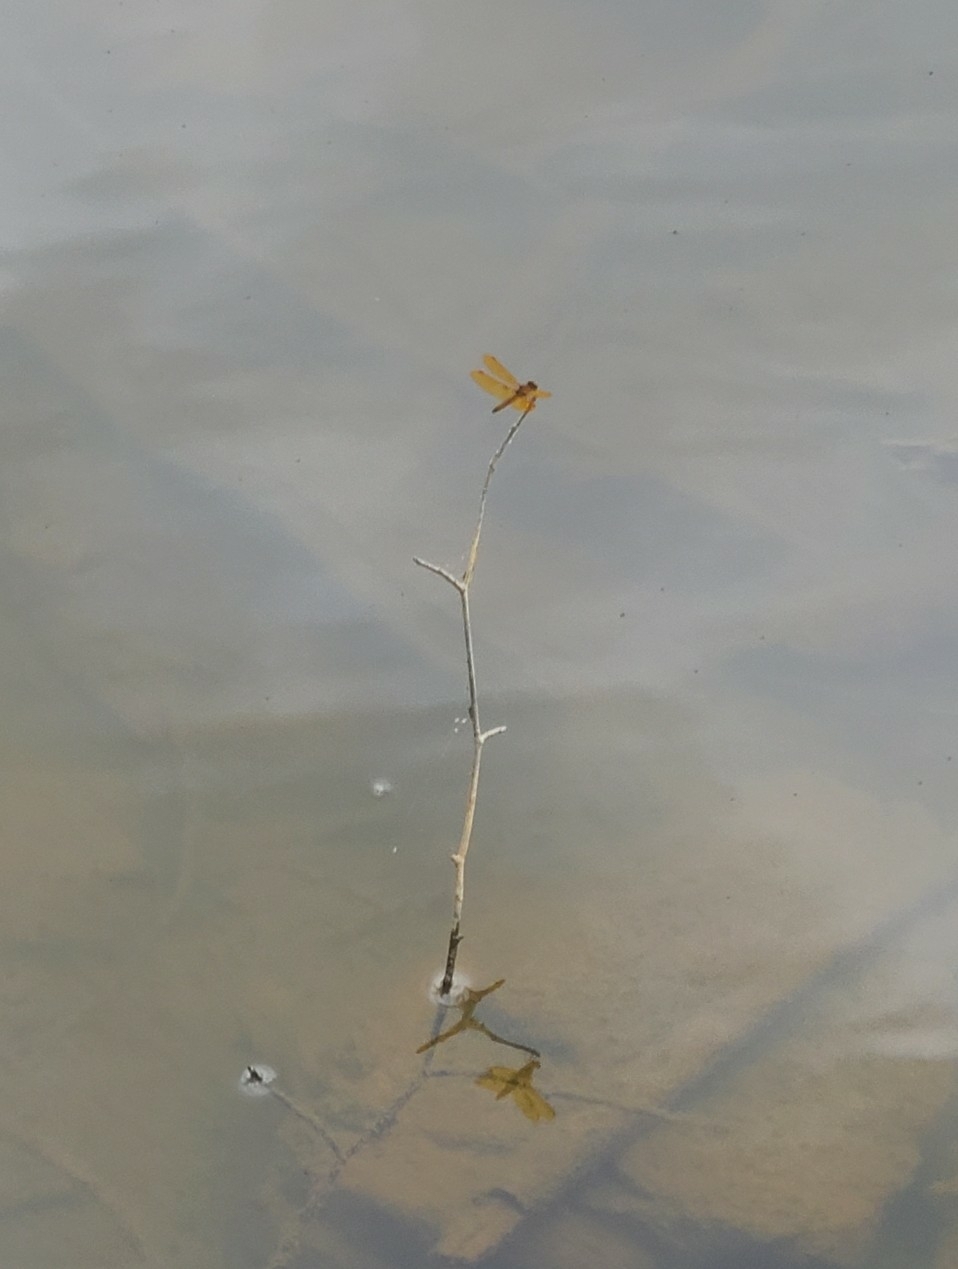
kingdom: Animalia
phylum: Arthropoda
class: Insecta
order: Odonata
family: Libellulidae
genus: Perithemis
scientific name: Perithemis tenera
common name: Eastern amberwing
